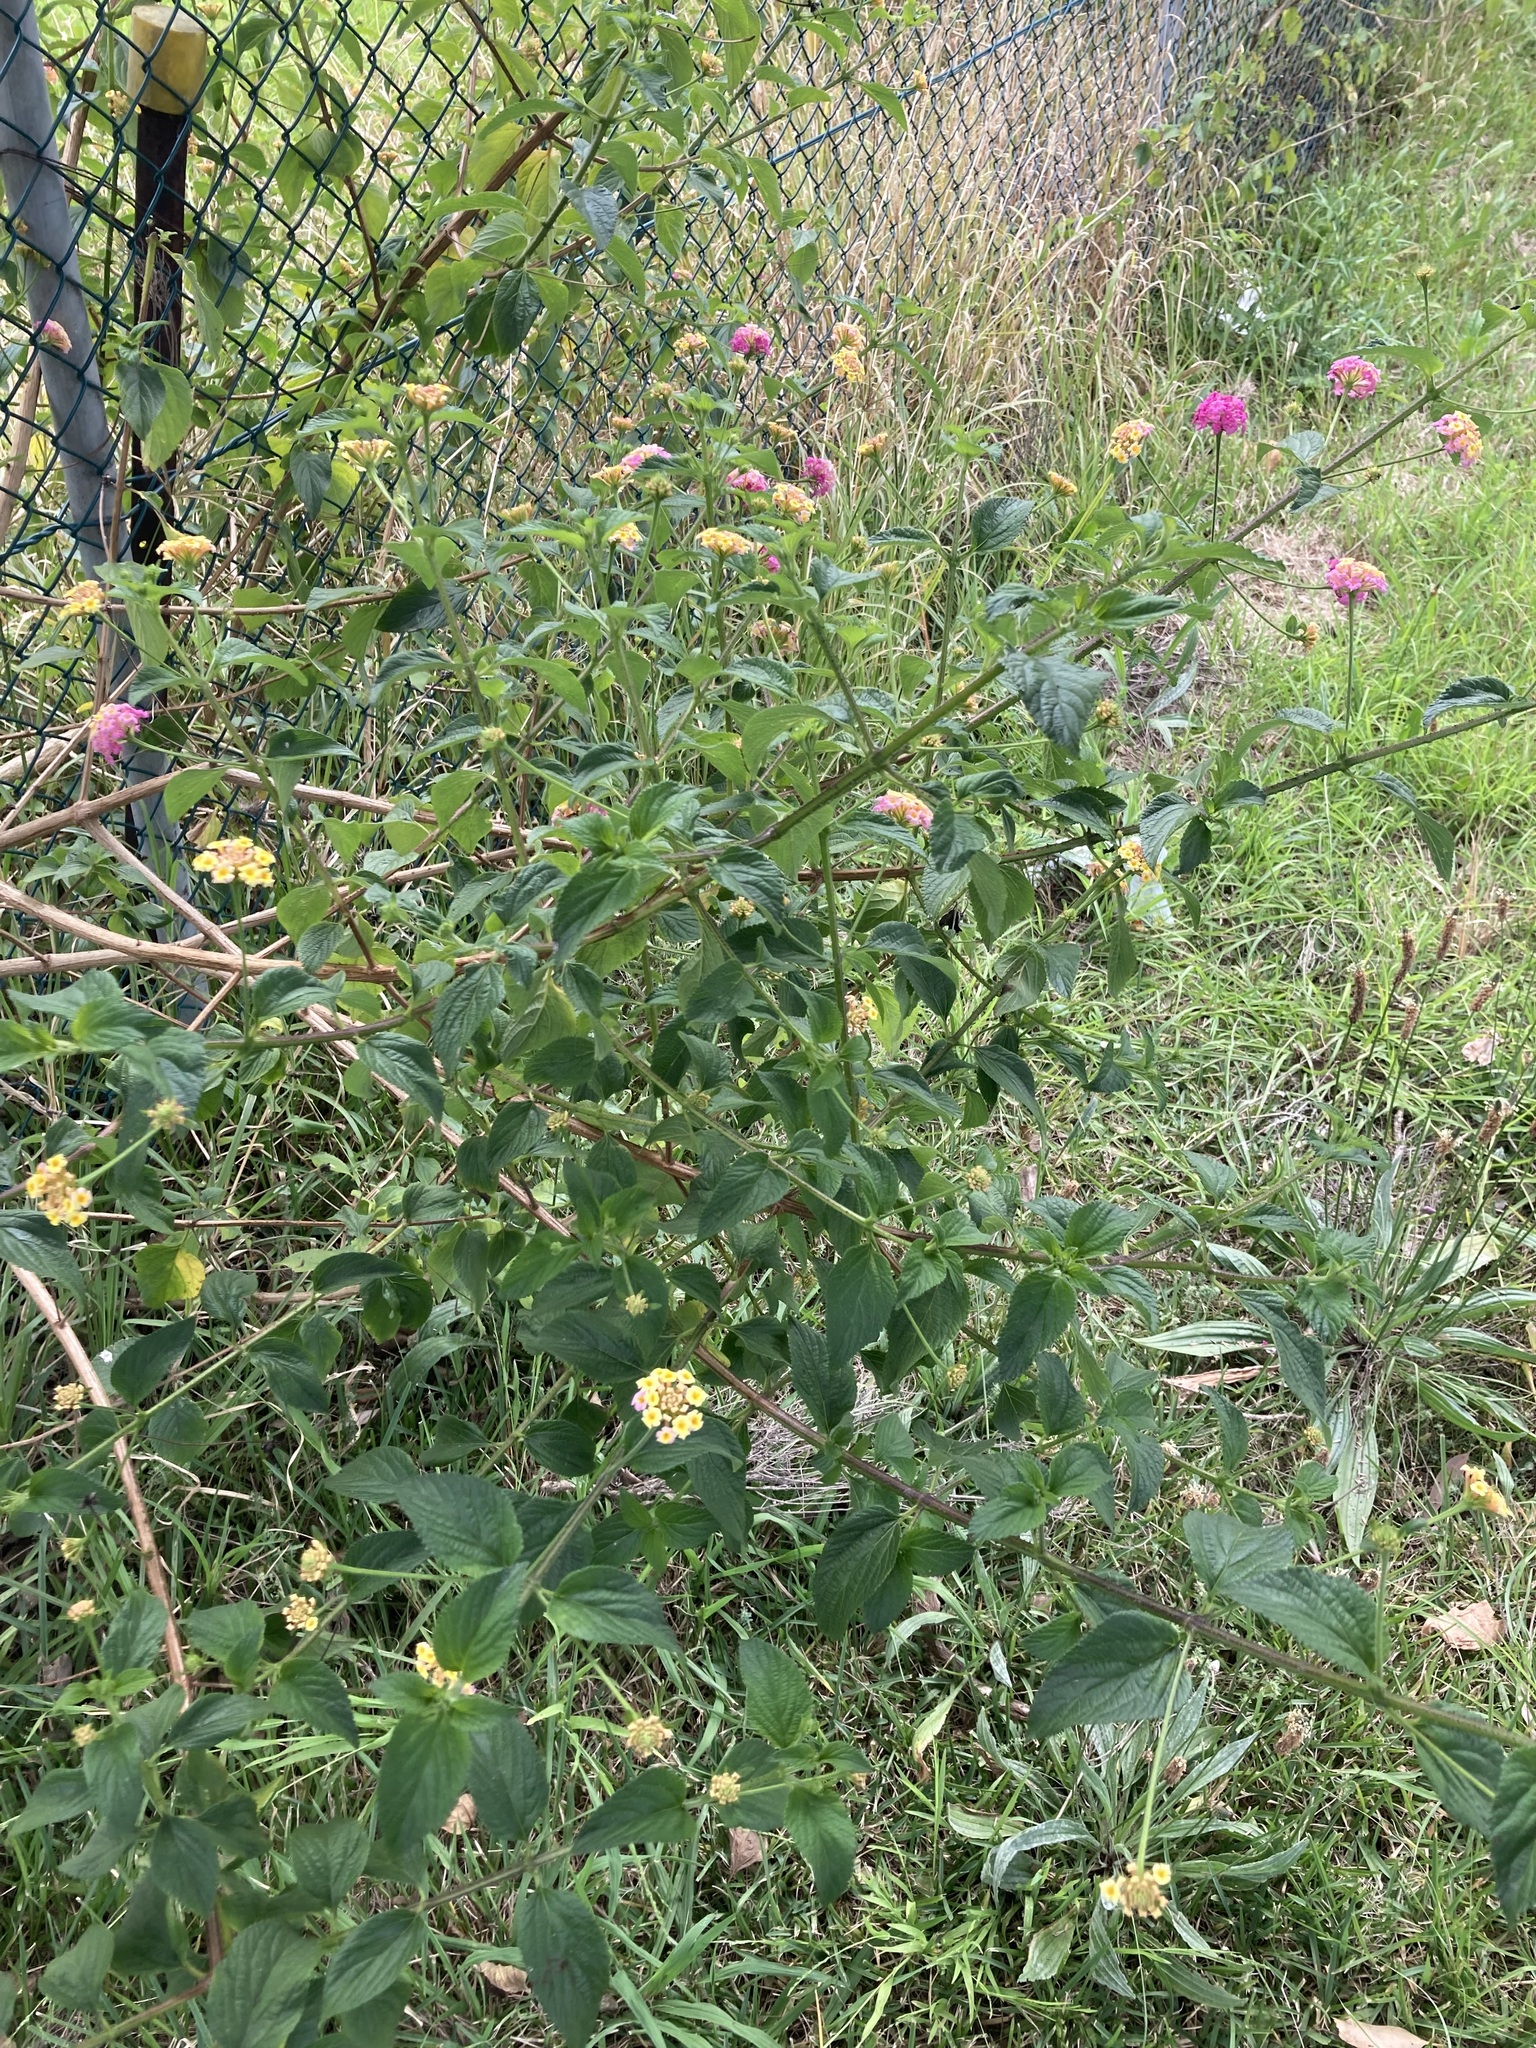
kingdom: Plantae
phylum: Tracheophyta
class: Magnoliopsida
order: Lamiales
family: Verbenaceae
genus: Lantana
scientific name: Lantana camara
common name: Lantana
